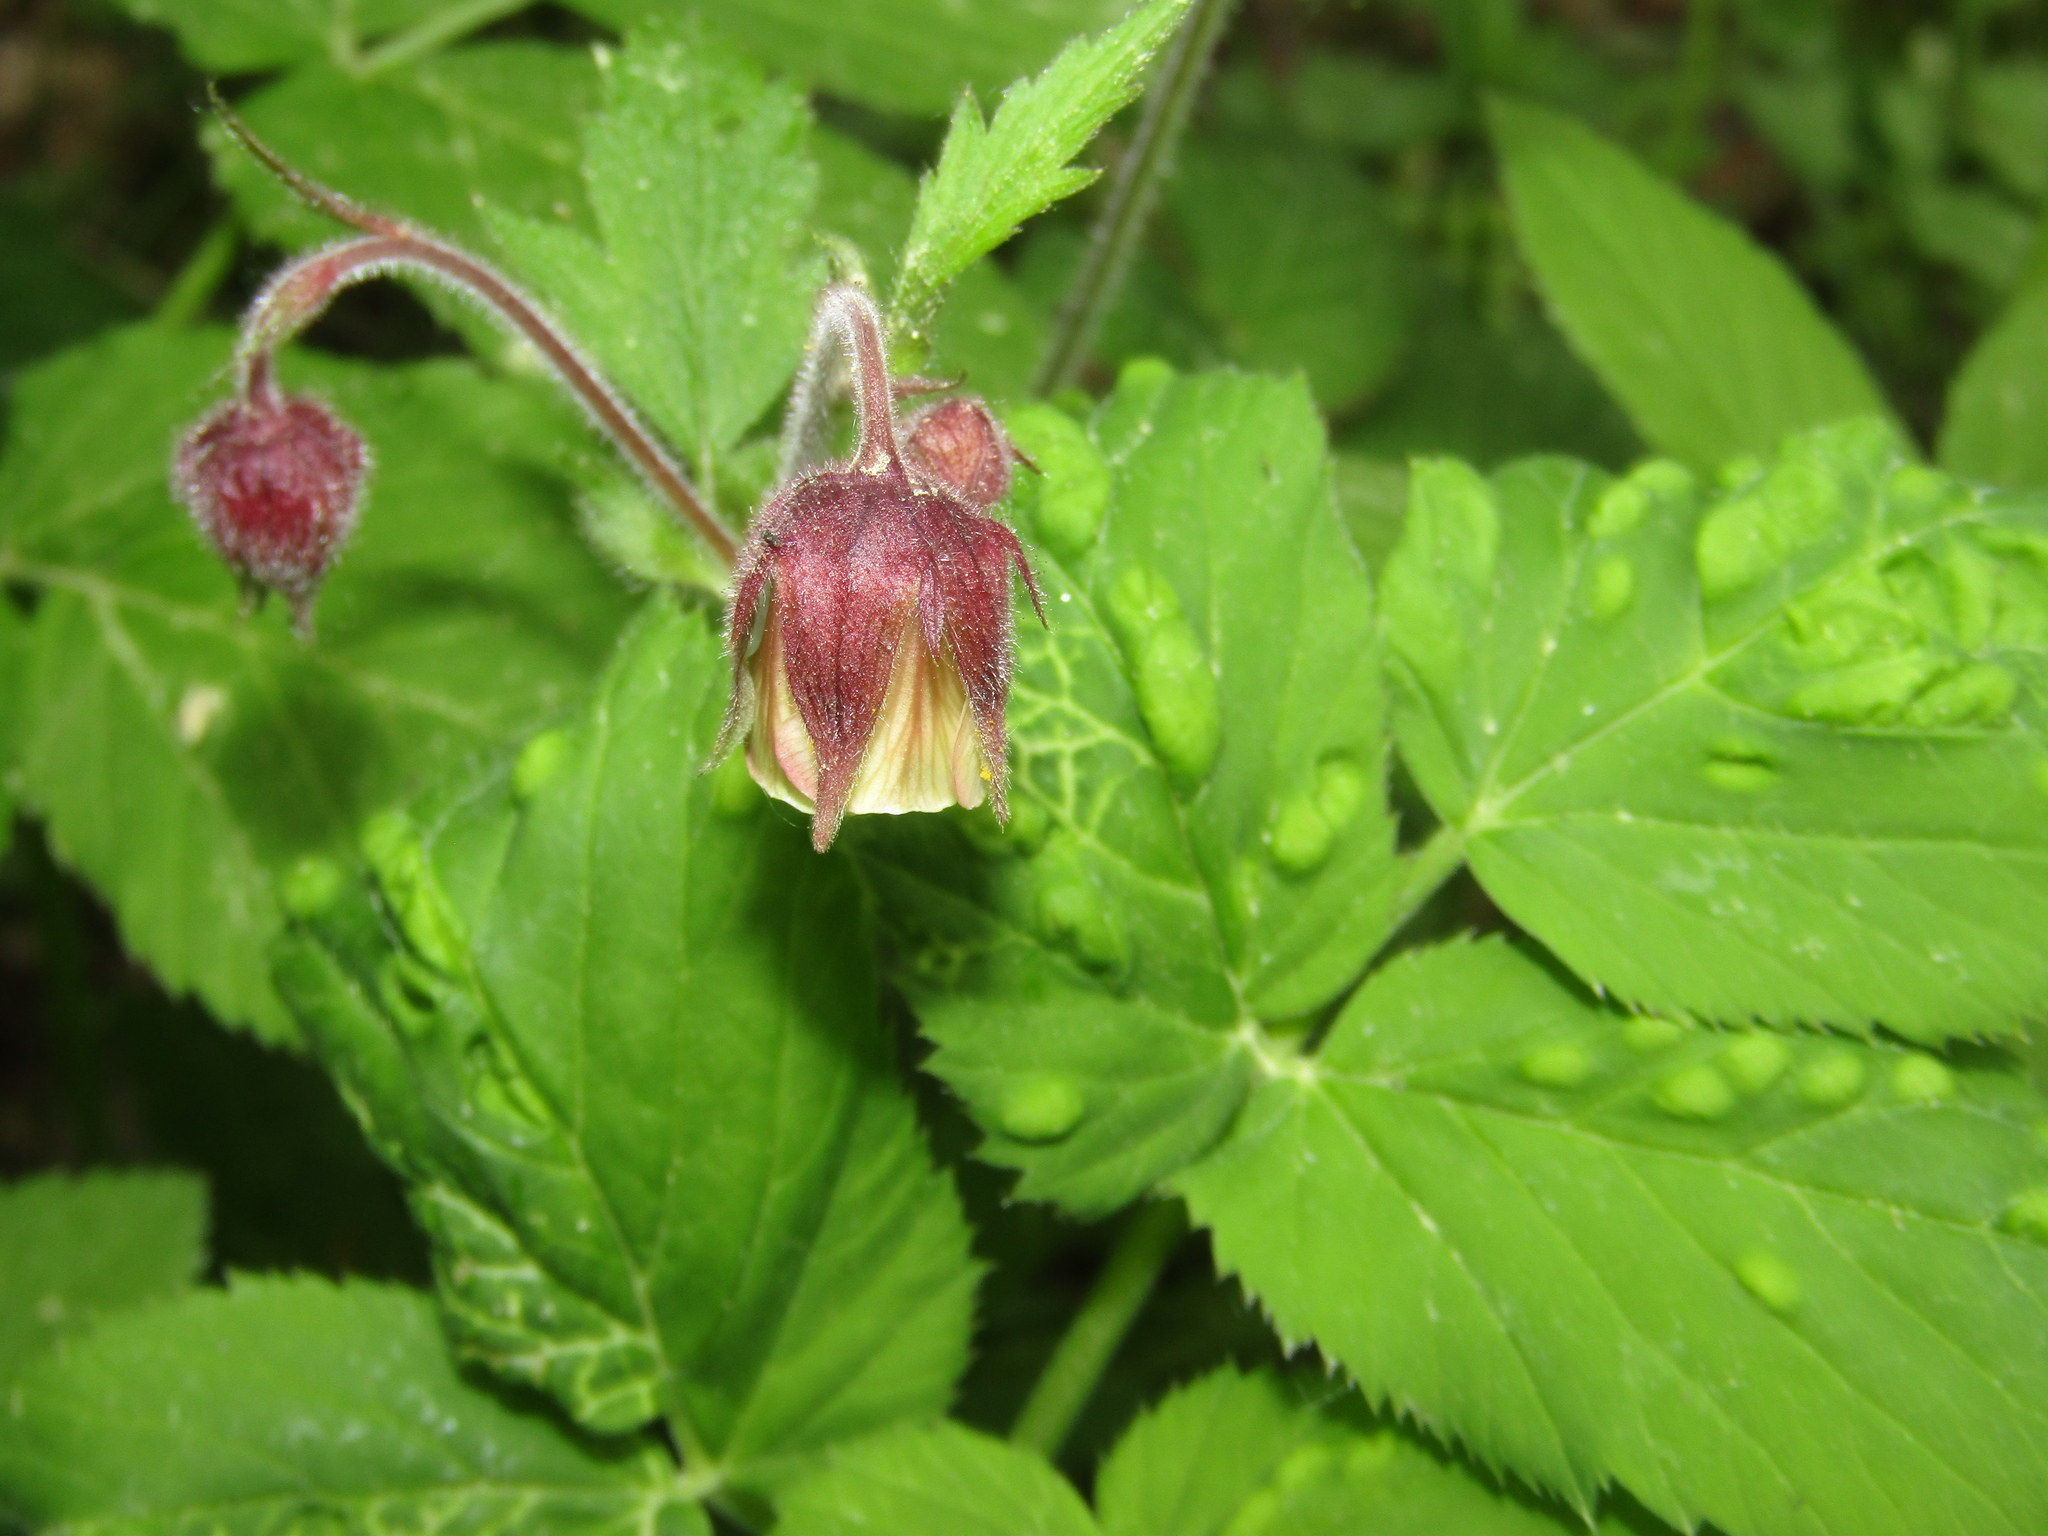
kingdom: Plantae
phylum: Tracheophyta
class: Magnoliopsida
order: Rosales
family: Rosaceae
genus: Geum
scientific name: Geum rivale
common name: Water avens
